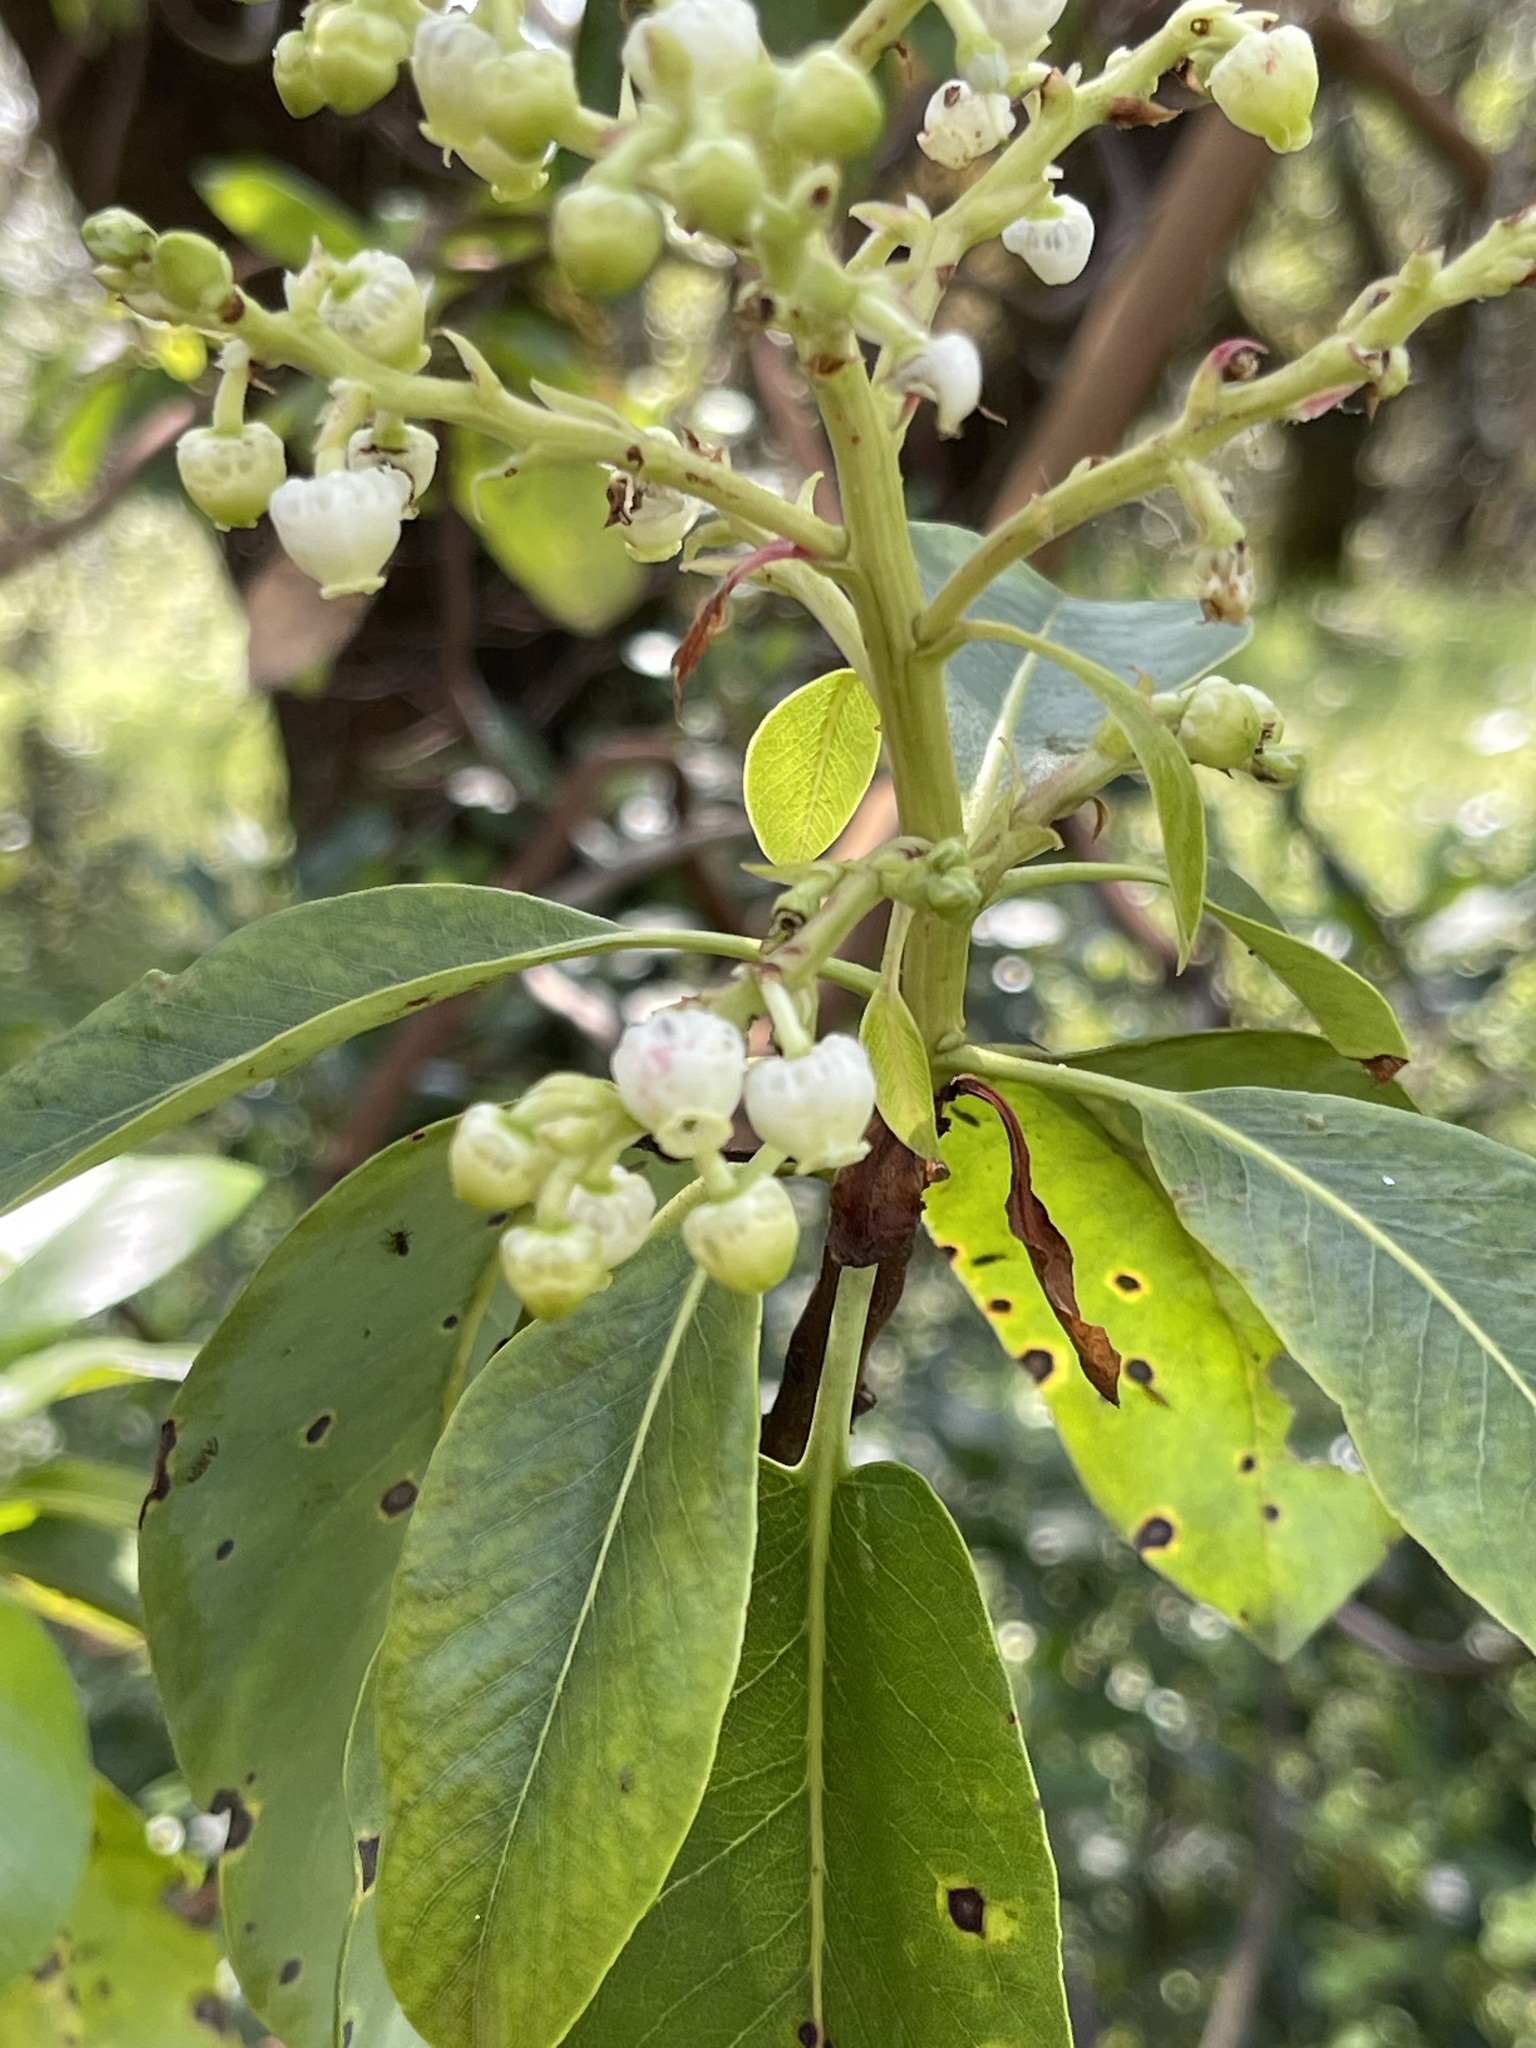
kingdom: Plantae
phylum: Tracheophyta
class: Magnoliopsida
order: Ericales
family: Ericaceae
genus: Arbutus
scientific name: Arbutus menziesii
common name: Pacific madrone
